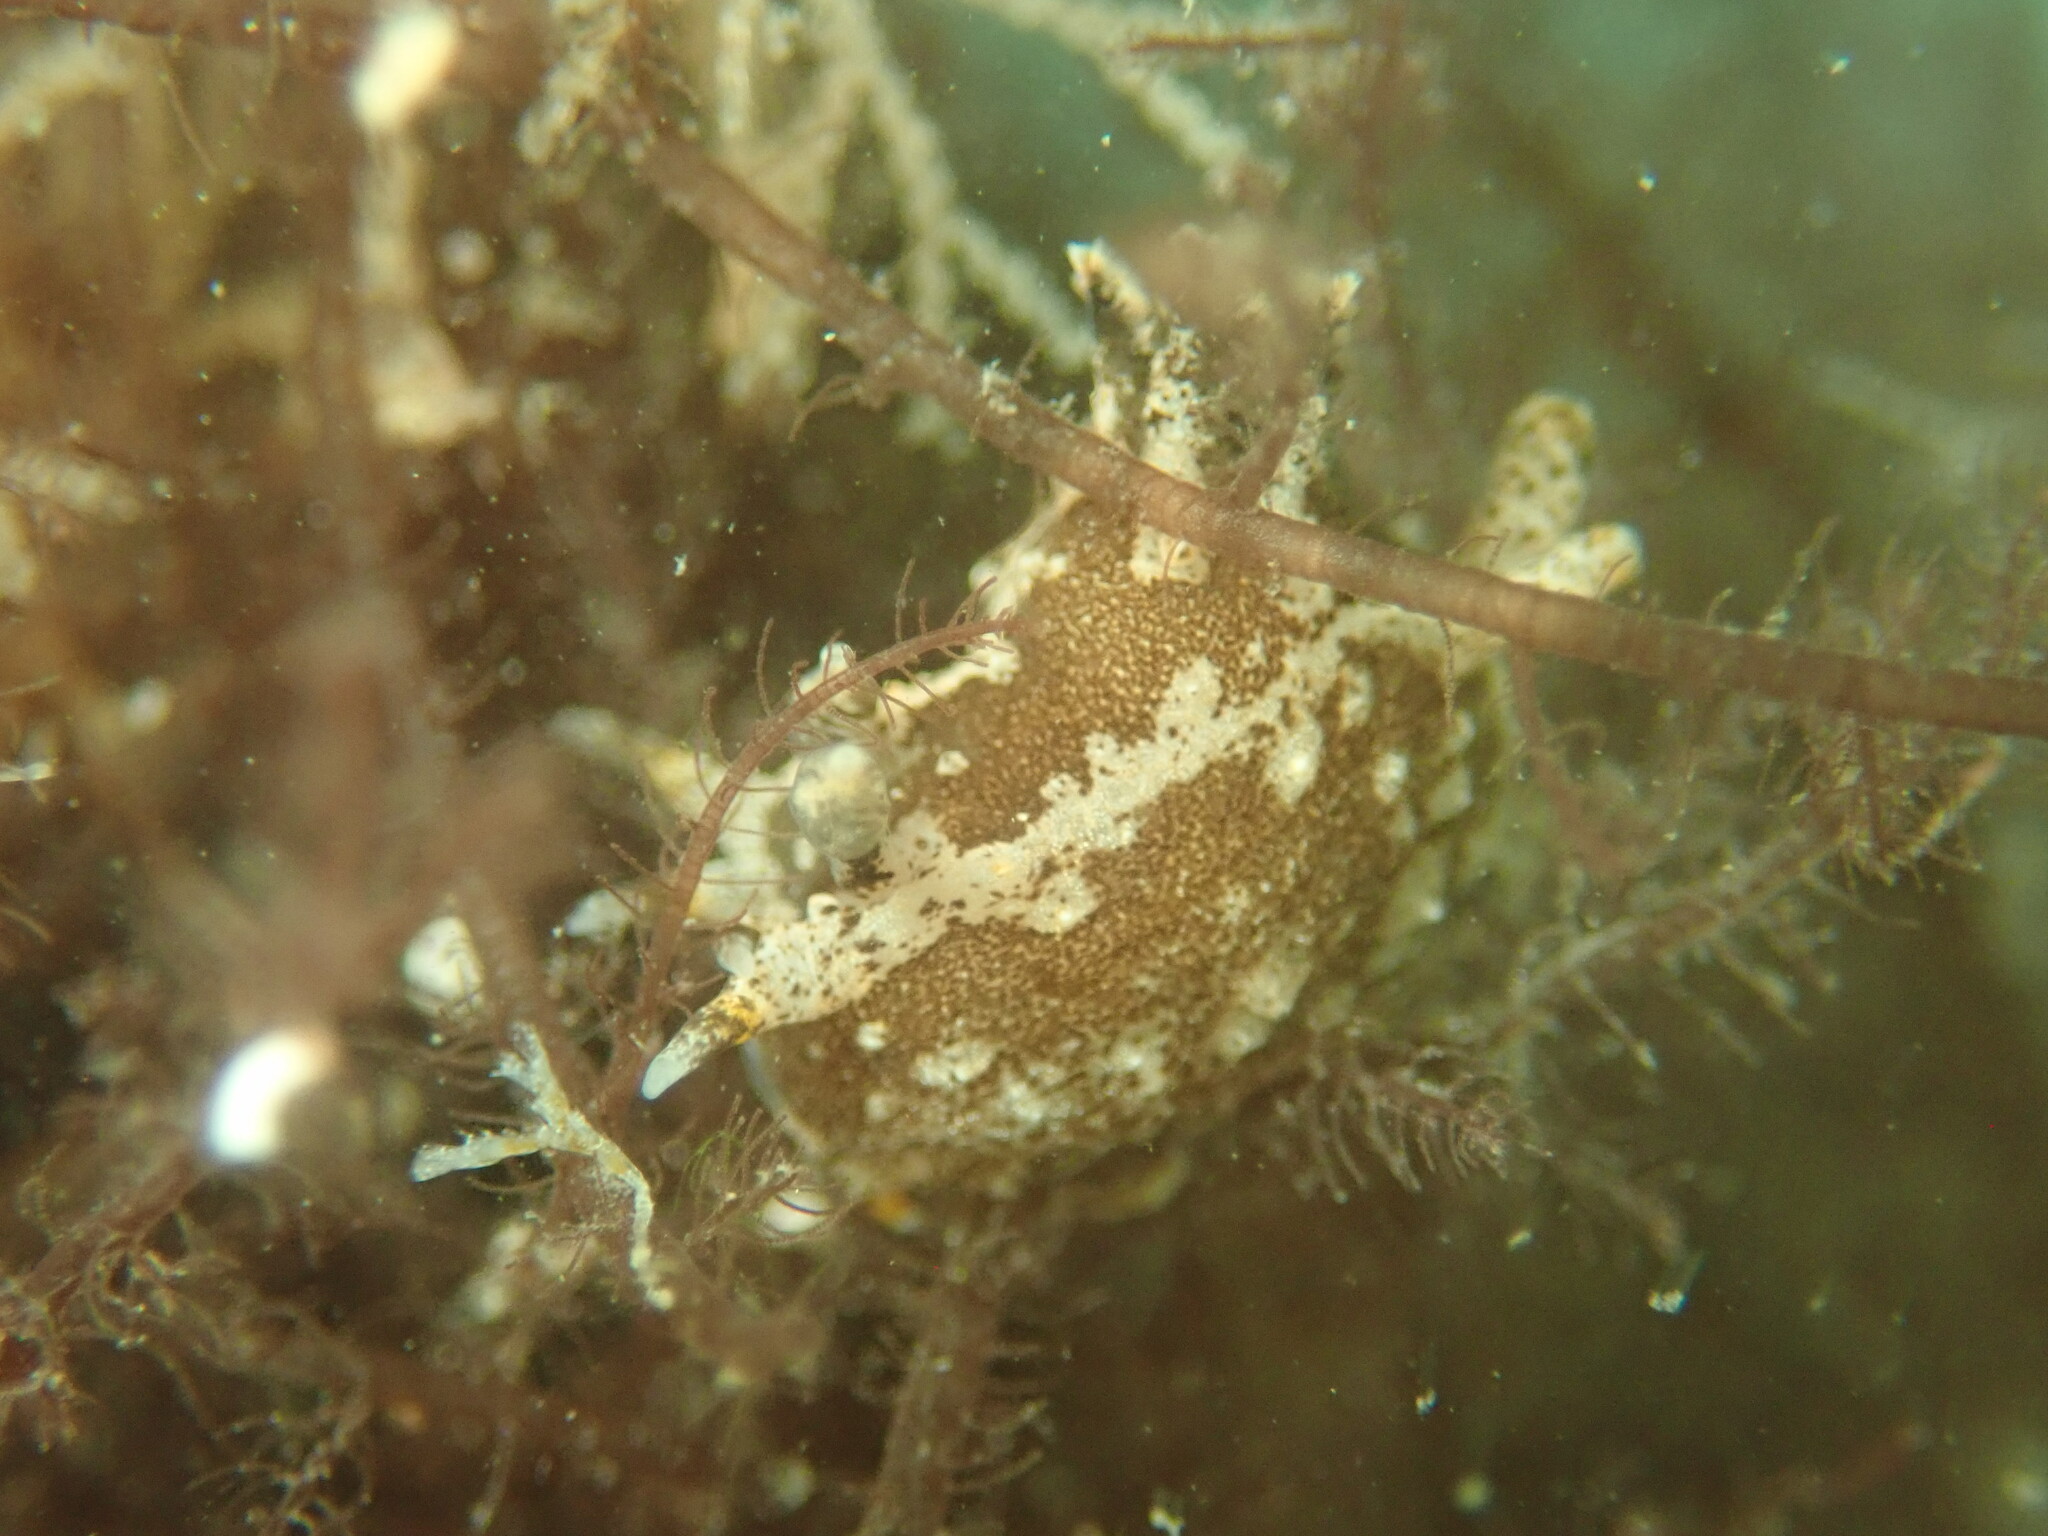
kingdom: Animalia
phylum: Mollusca
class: Gastropoda
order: Nudibranchia
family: Polyceridae
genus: Polycera
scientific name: Polycera hedgpethi
